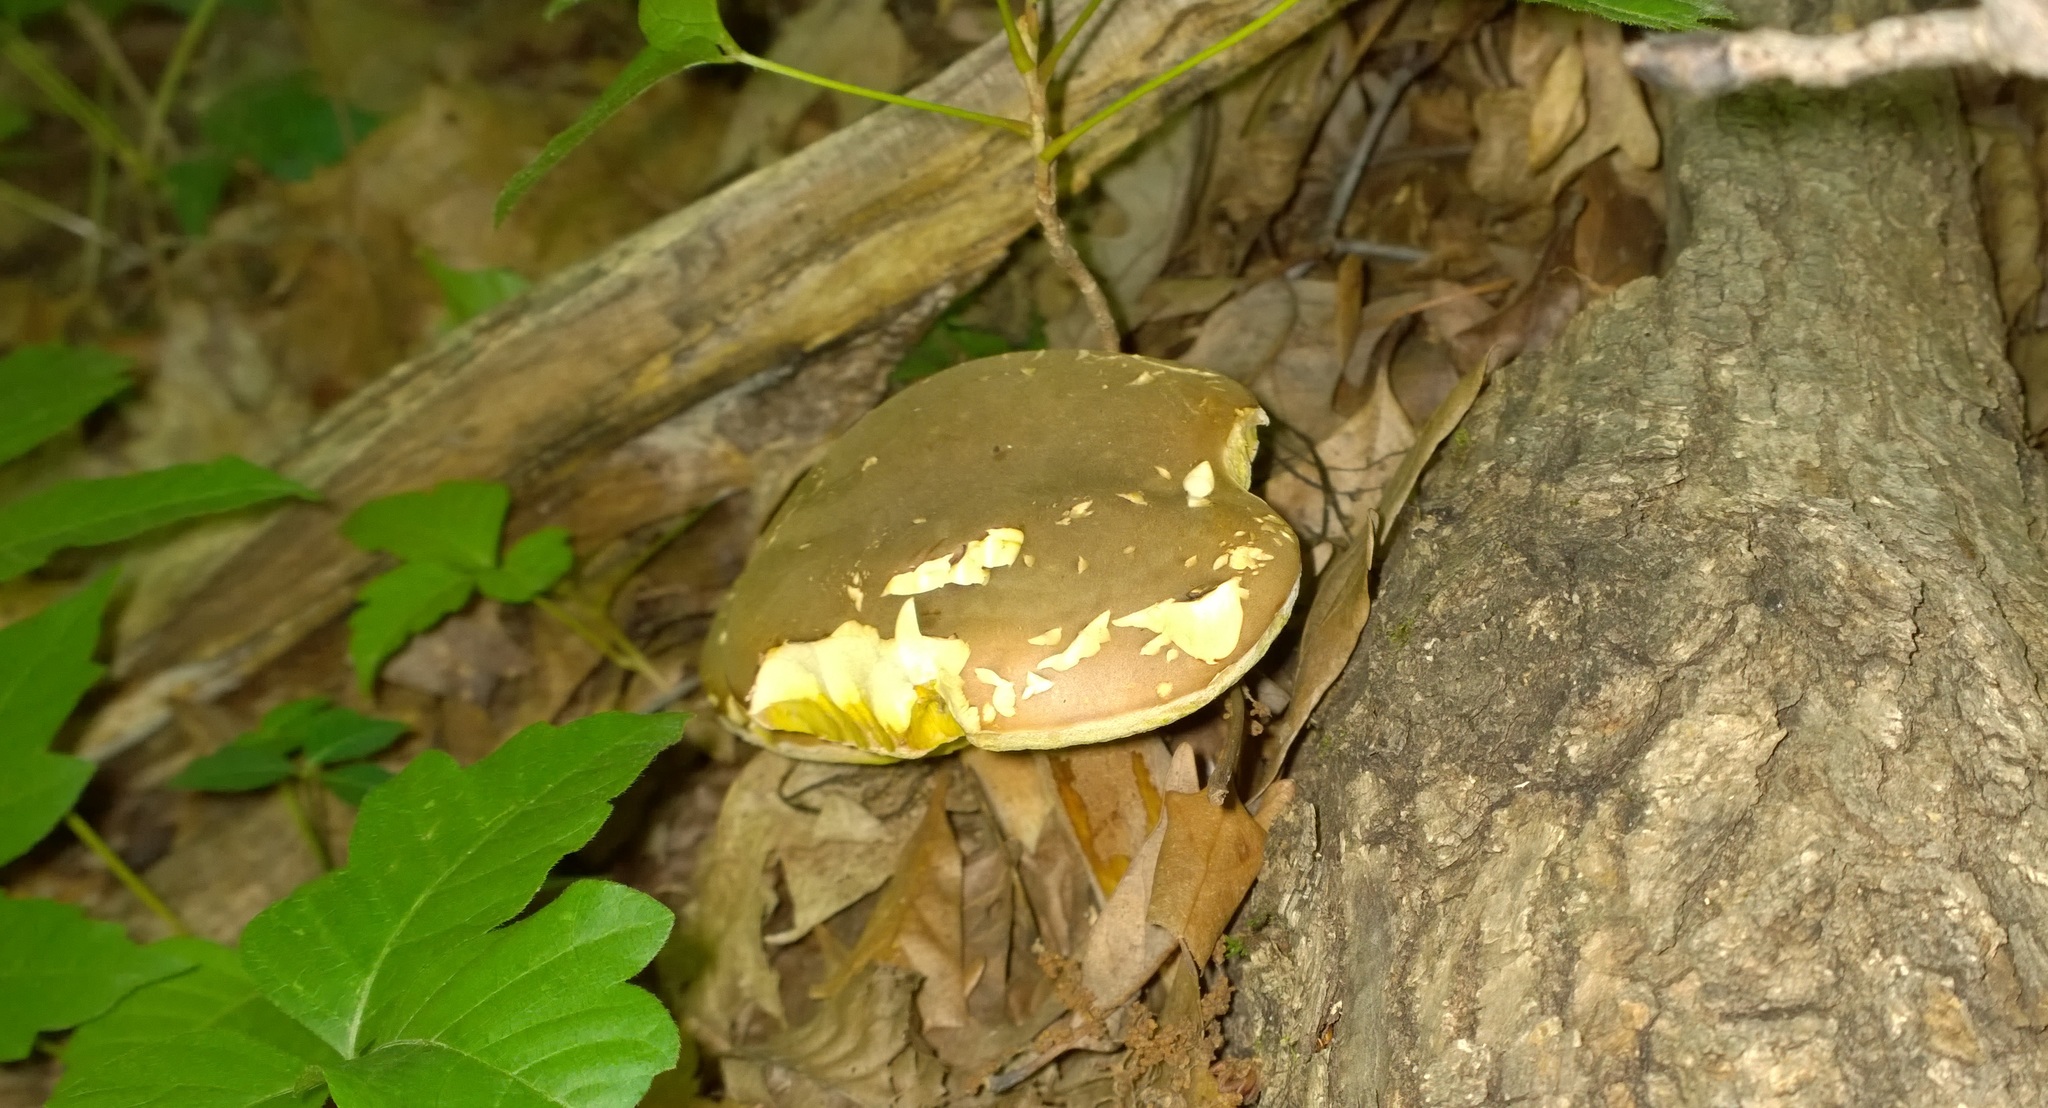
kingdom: Fungi
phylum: Basidiomycota
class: Agaricomycetes
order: Boletales
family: Boletaceae
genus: Boletus
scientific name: Boletus variipes
